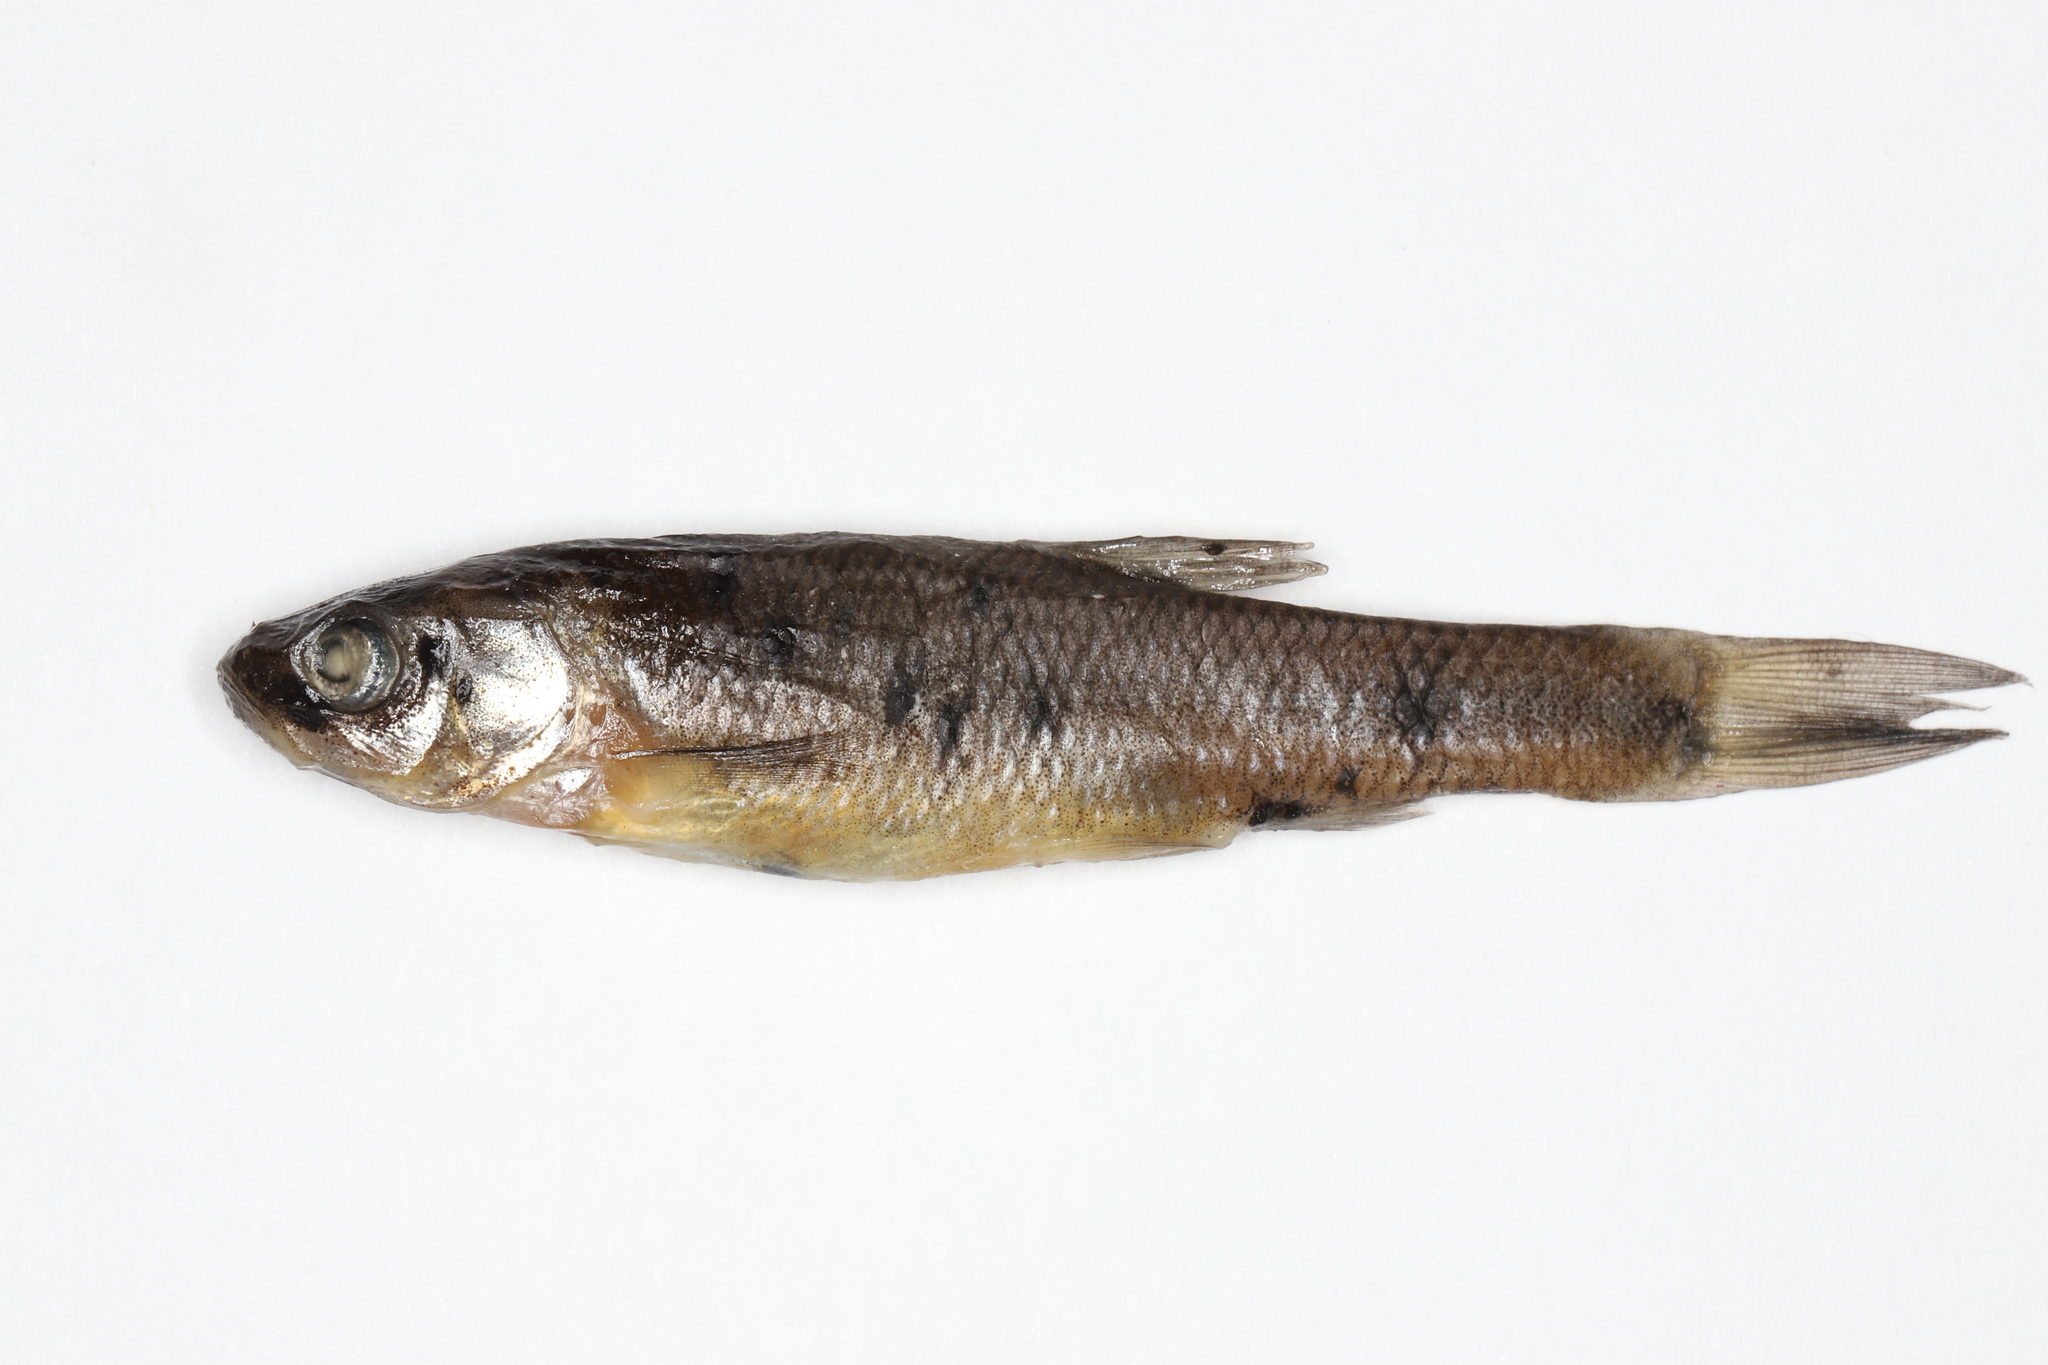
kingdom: Animalia
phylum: Chordata
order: Cypriniformes
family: Cyprinidae
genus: Pimephales
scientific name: Pimephales promelas
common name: Fathead minnow
